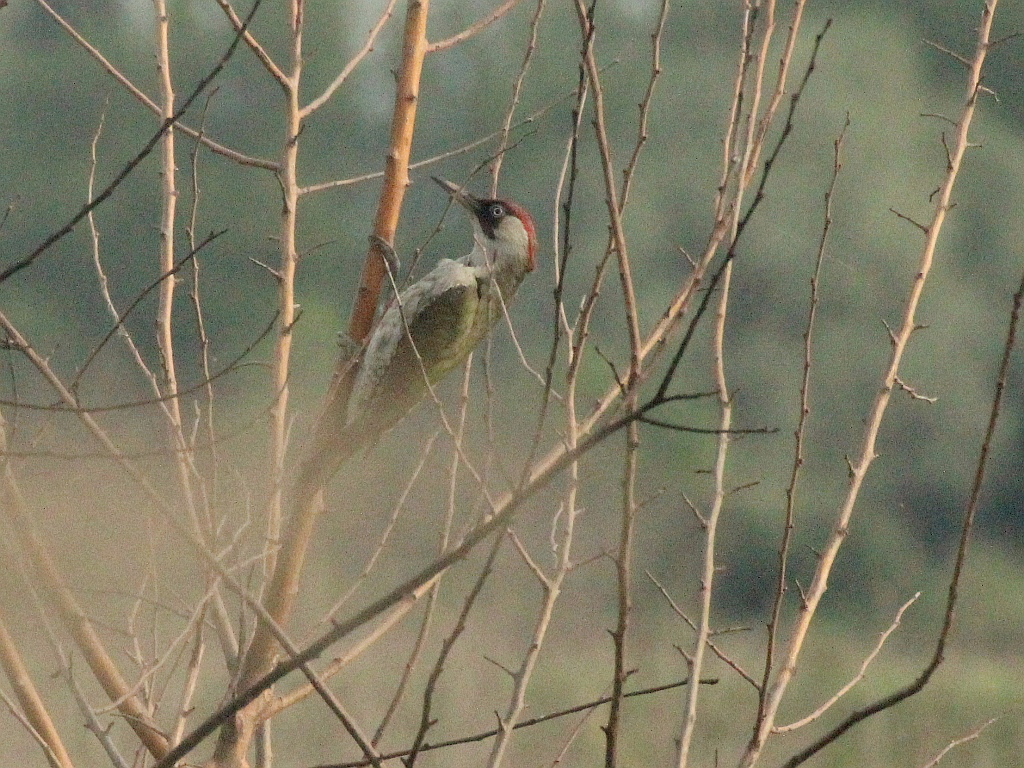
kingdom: Animalia
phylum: Chordata
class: Aves
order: Piciformes
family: Picidae
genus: Picus
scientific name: Picus viridis
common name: European green woodpecker
